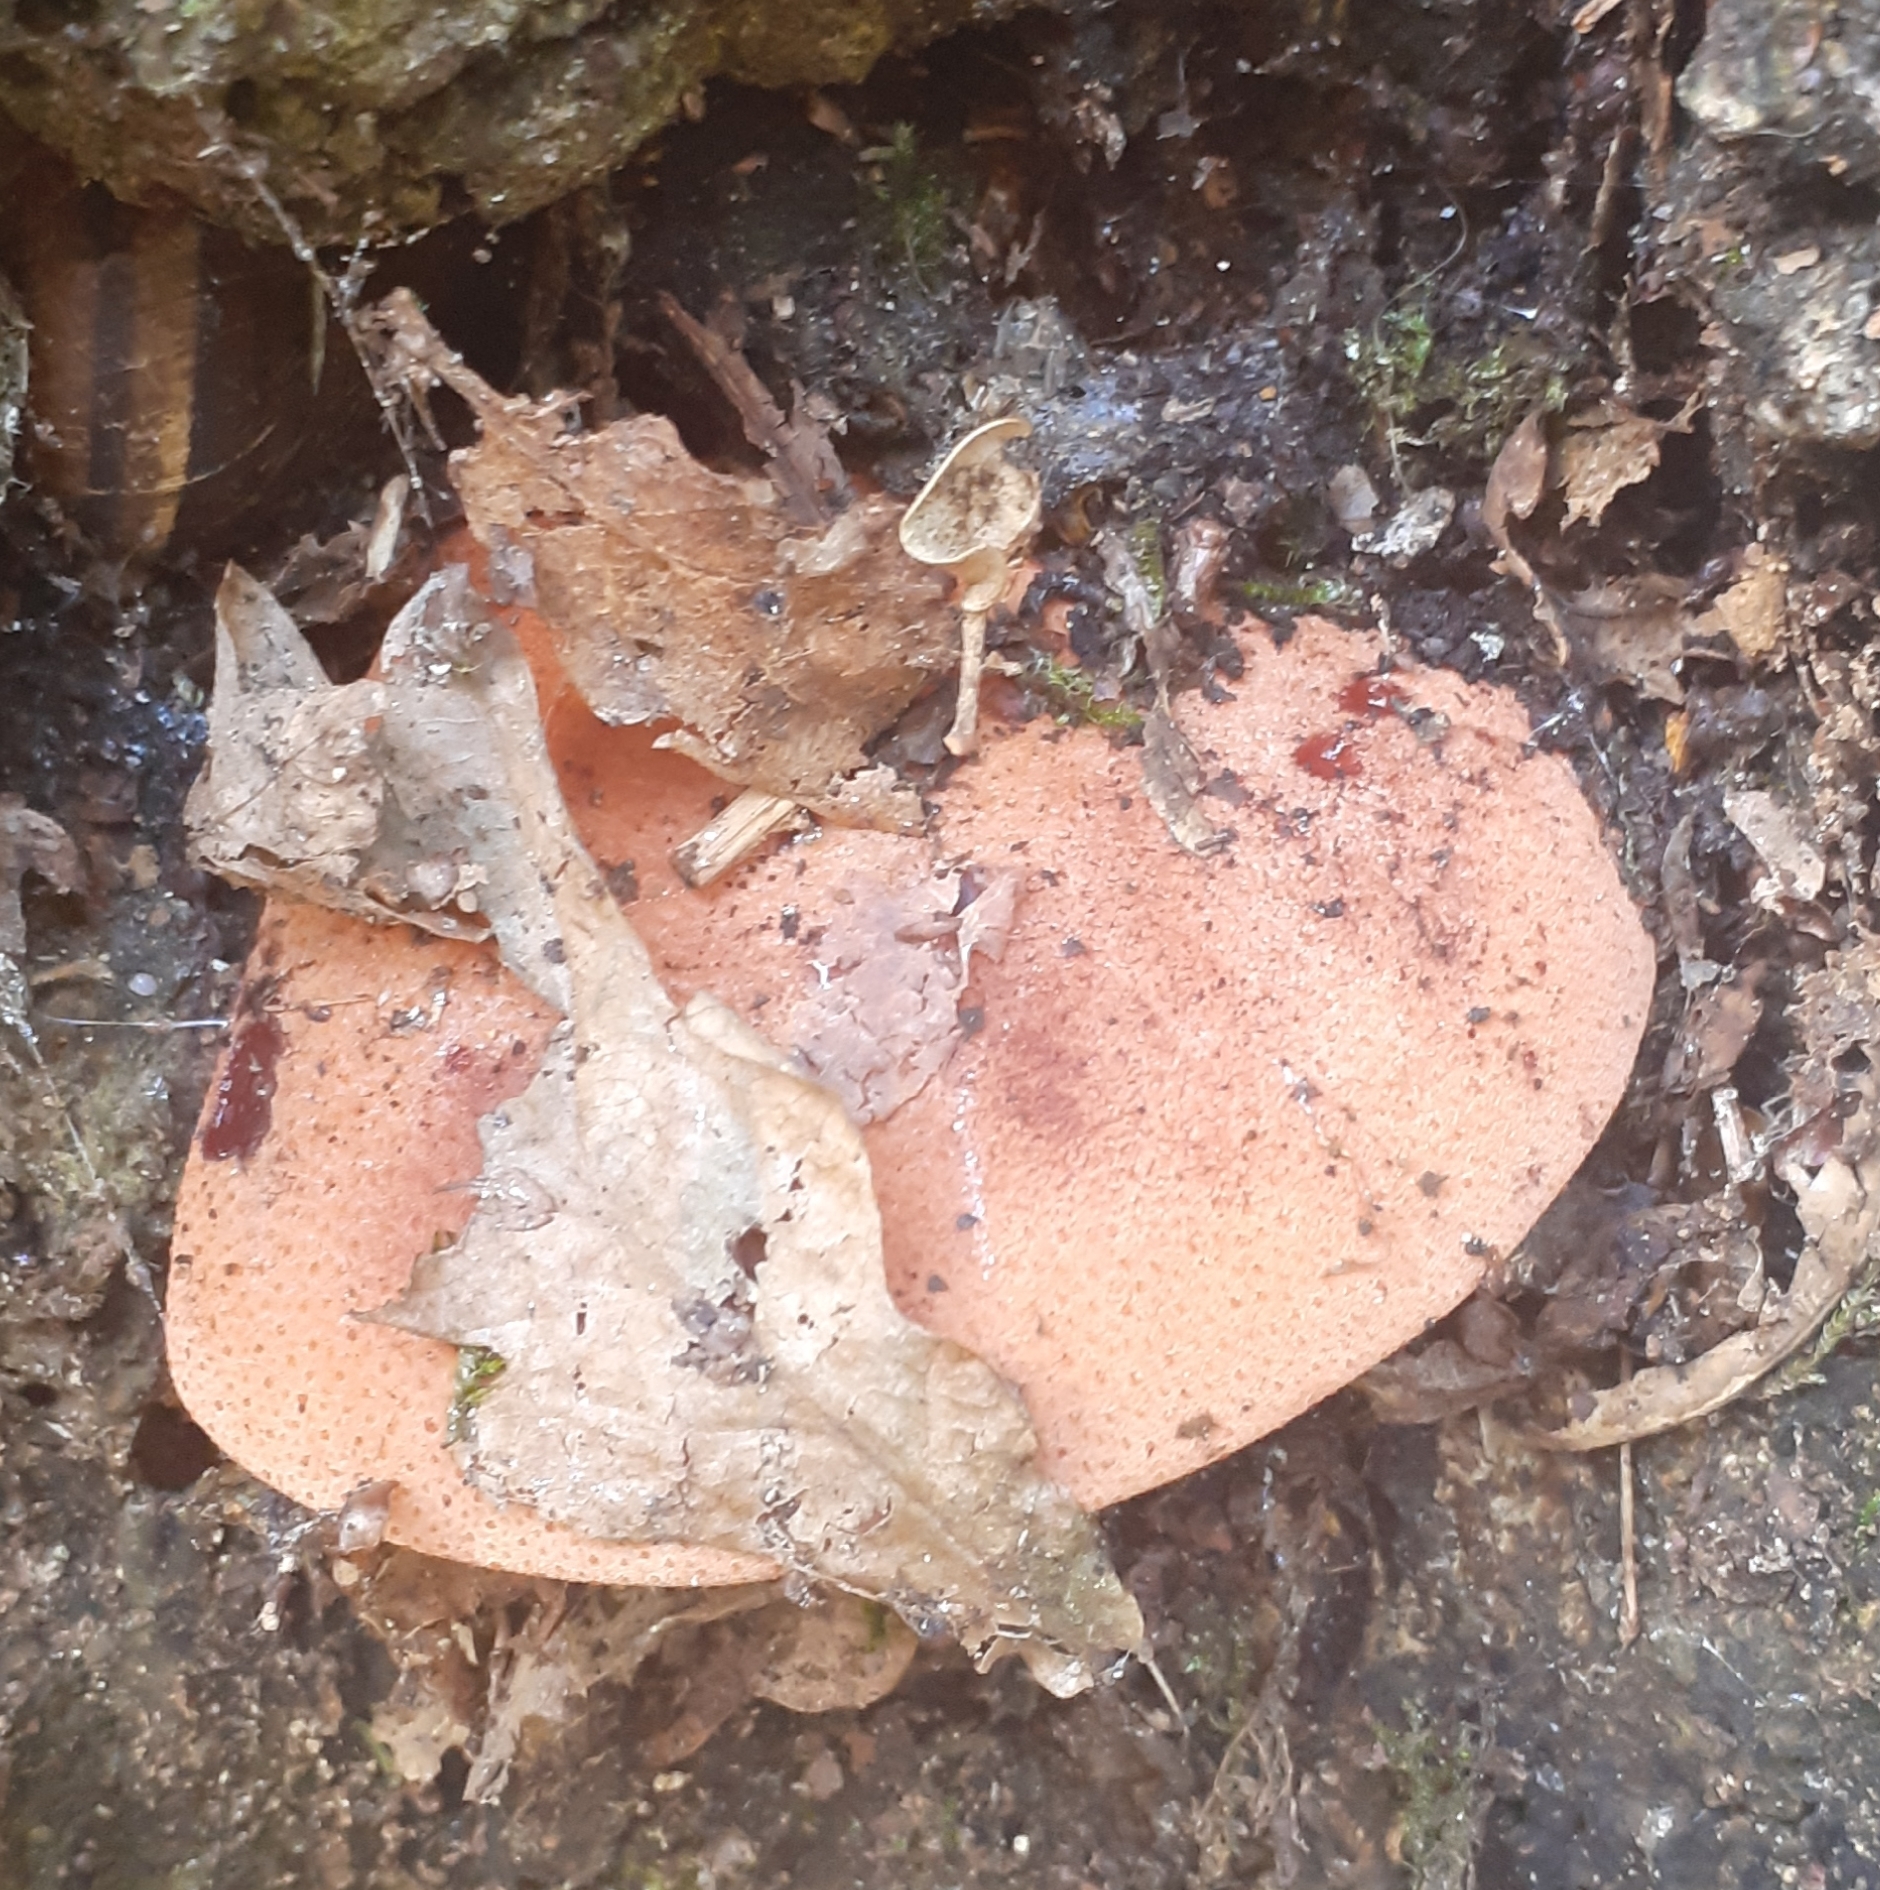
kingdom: Fungi
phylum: Basidiomycota
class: Agaricomycetes
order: Agaricales
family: Fistulinaceae
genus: Fistulina
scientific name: Fistulina hepatica
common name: Beef-steak fungus
